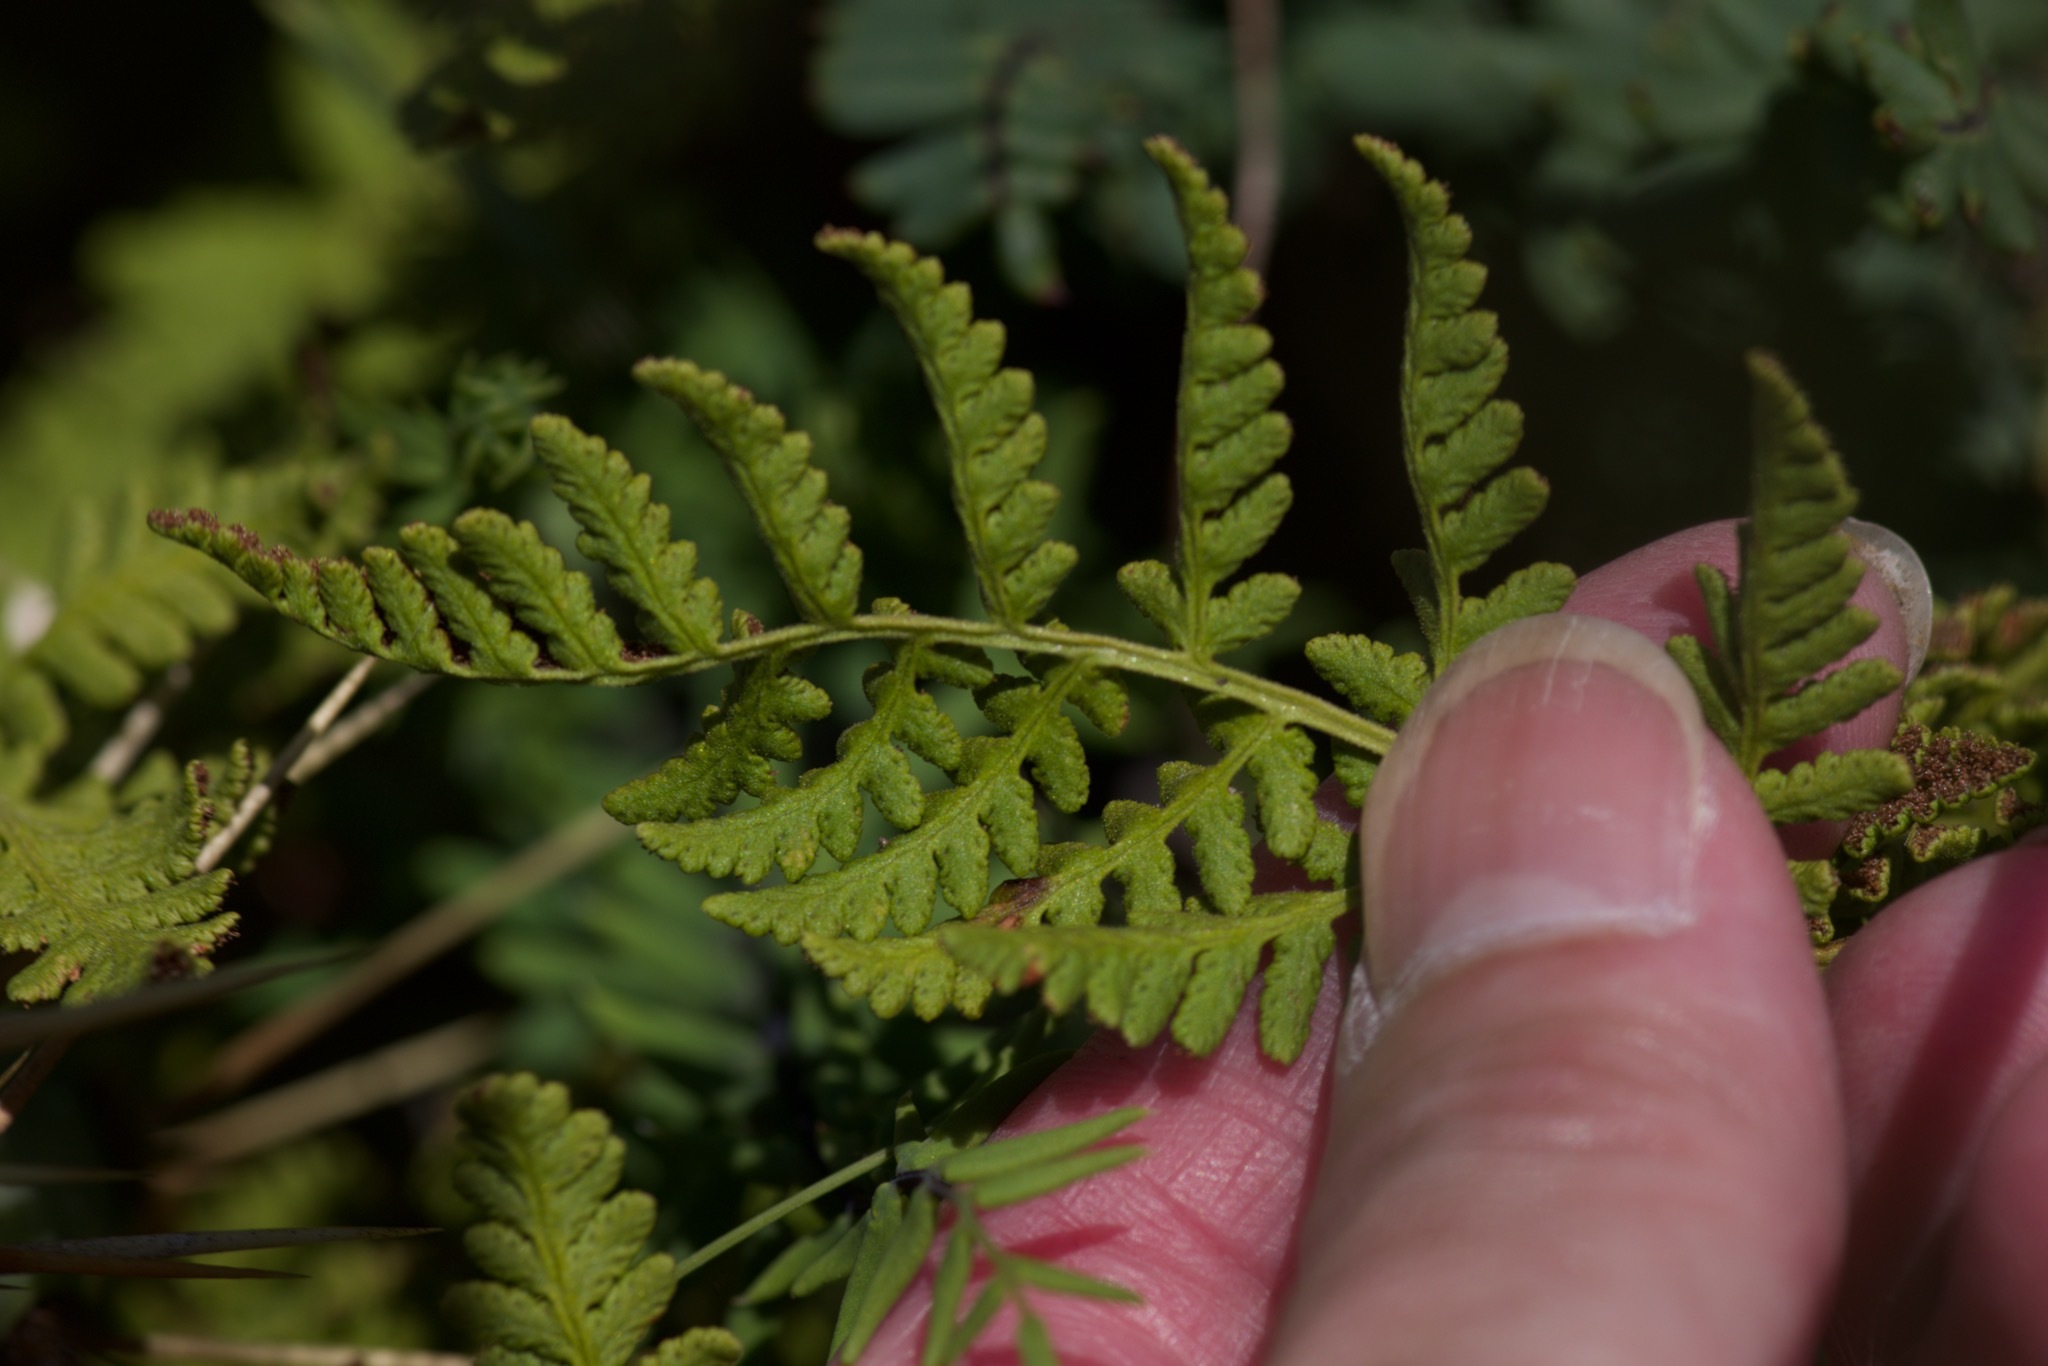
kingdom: Plantae
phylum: Tracheophyta
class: Polypodiopsida
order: Polypodiales
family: Woodsiaceae
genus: Physematium
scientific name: Physematium obtusum
